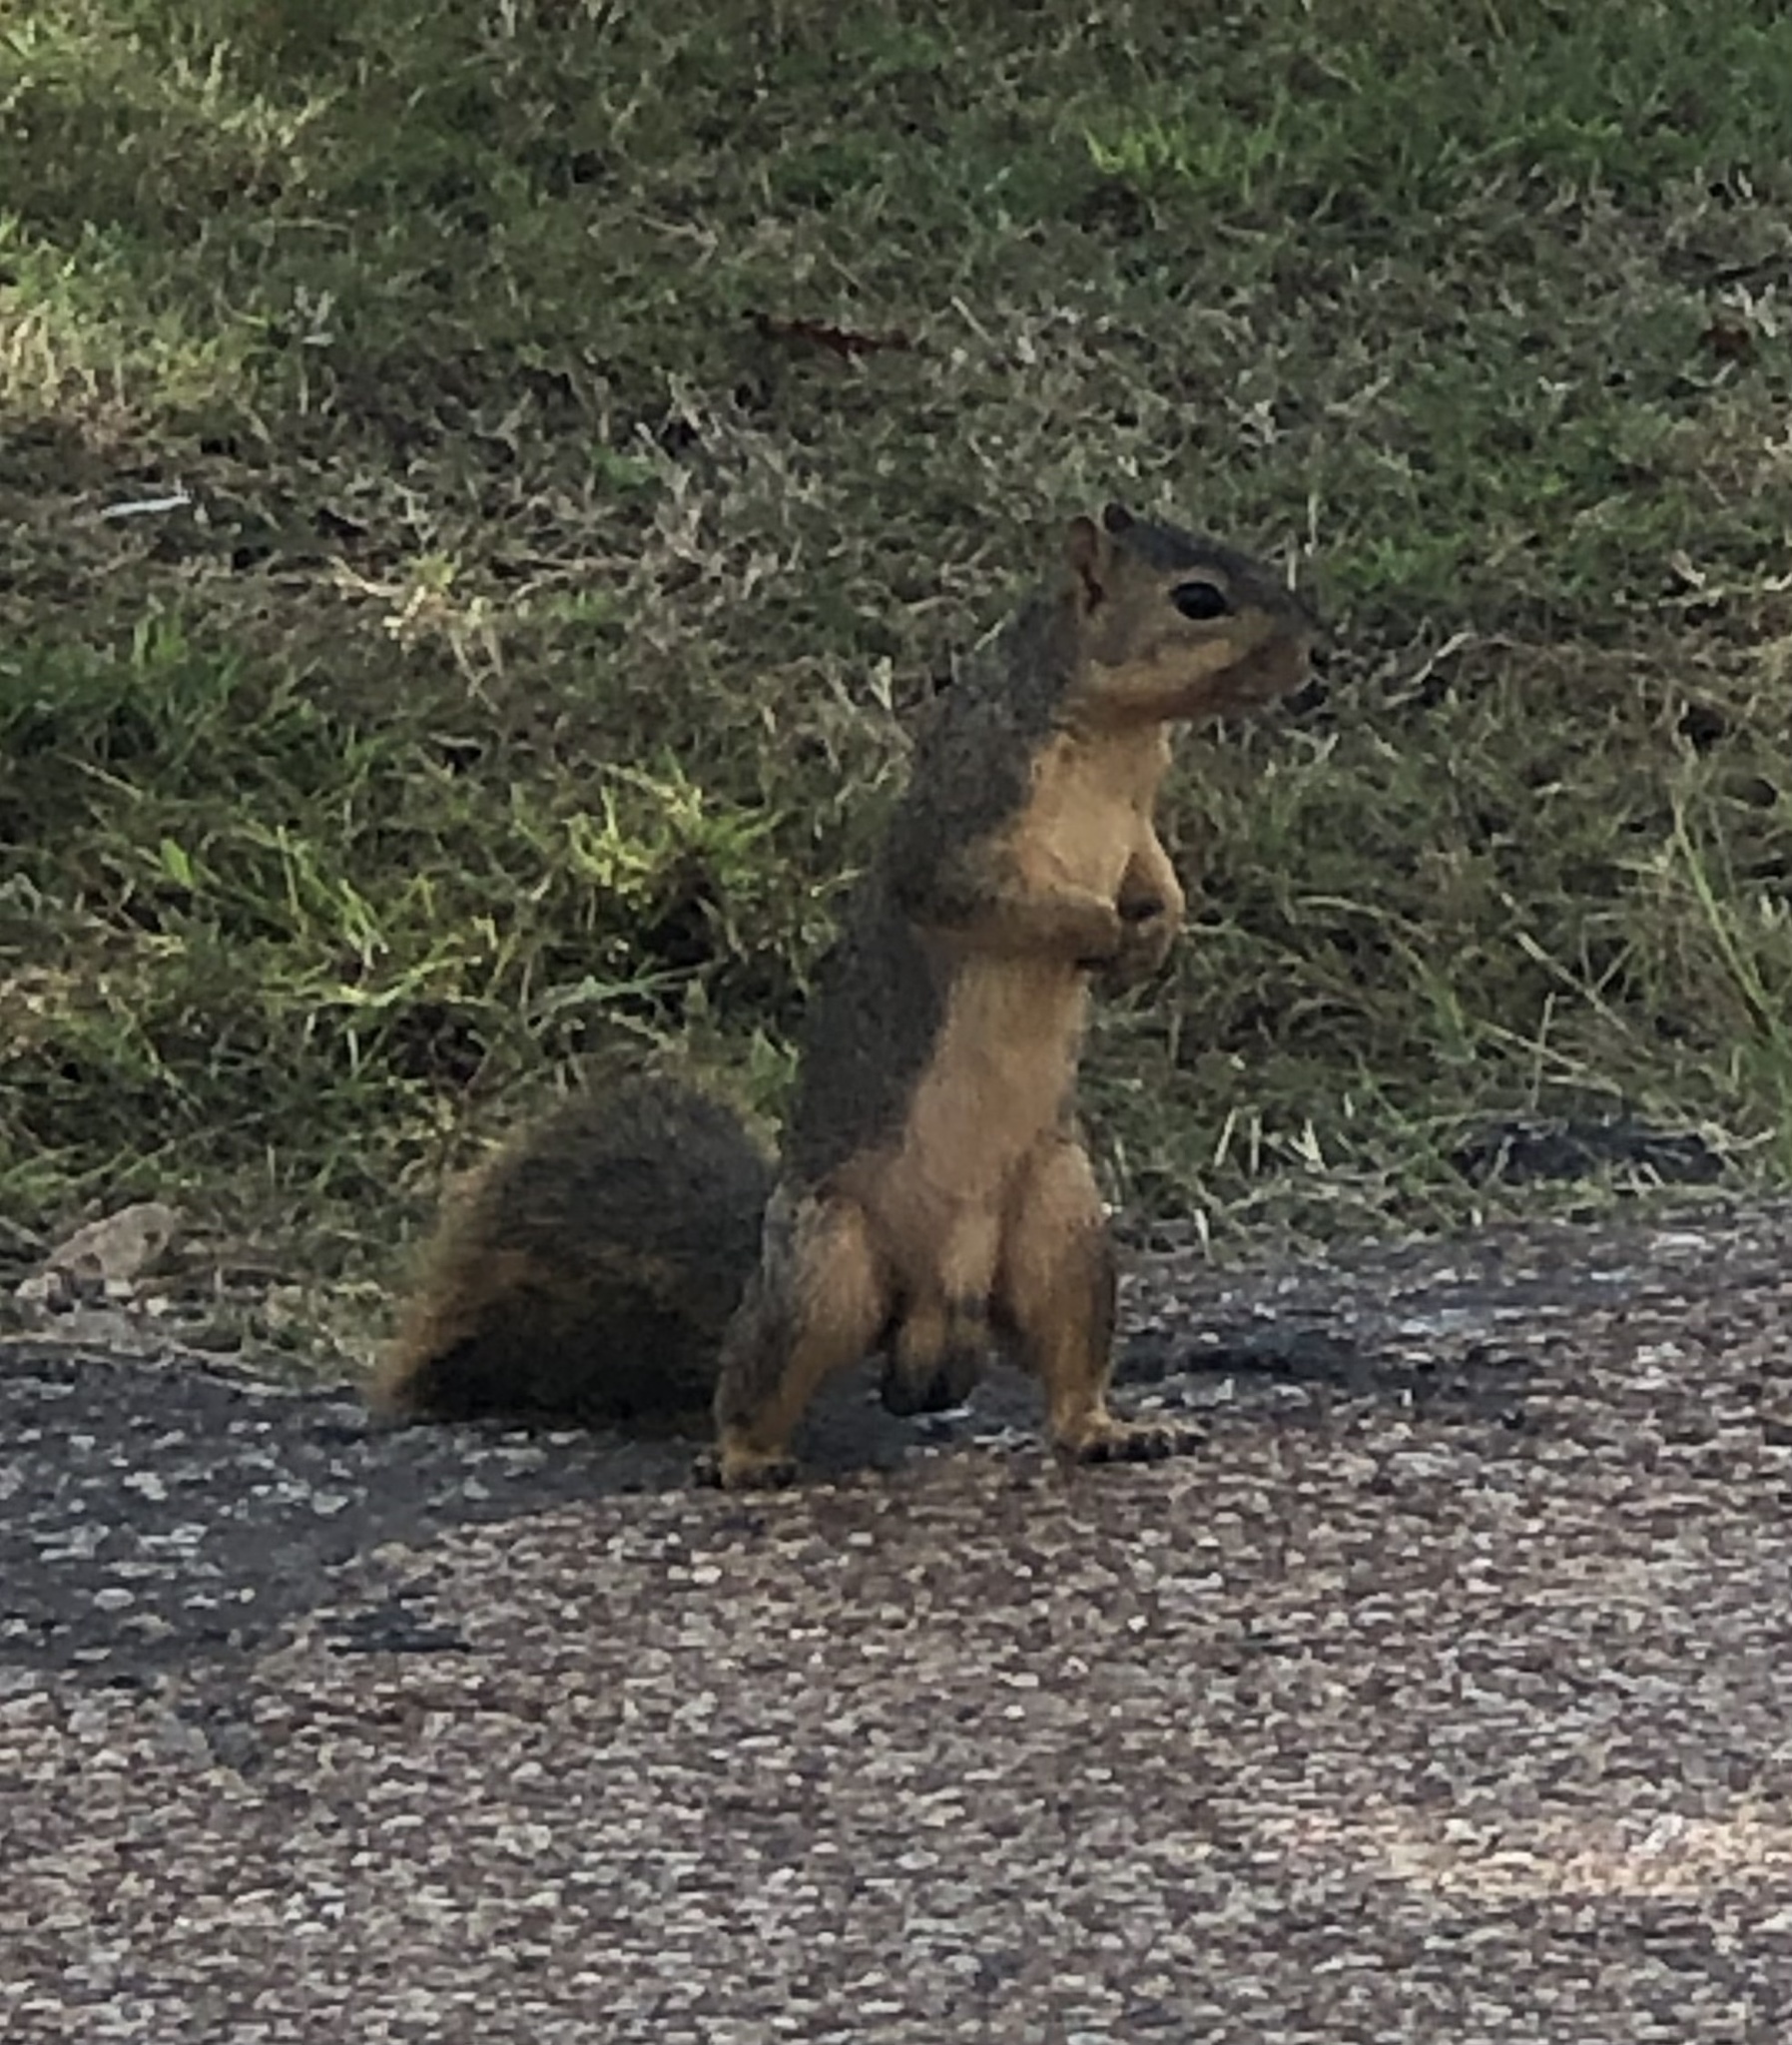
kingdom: Animalia
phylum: Chordata
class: Mammalia
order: Rodentia
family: Sciuridae
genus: Sciurus
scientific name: Sciurus niger
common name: Fox squirrel
